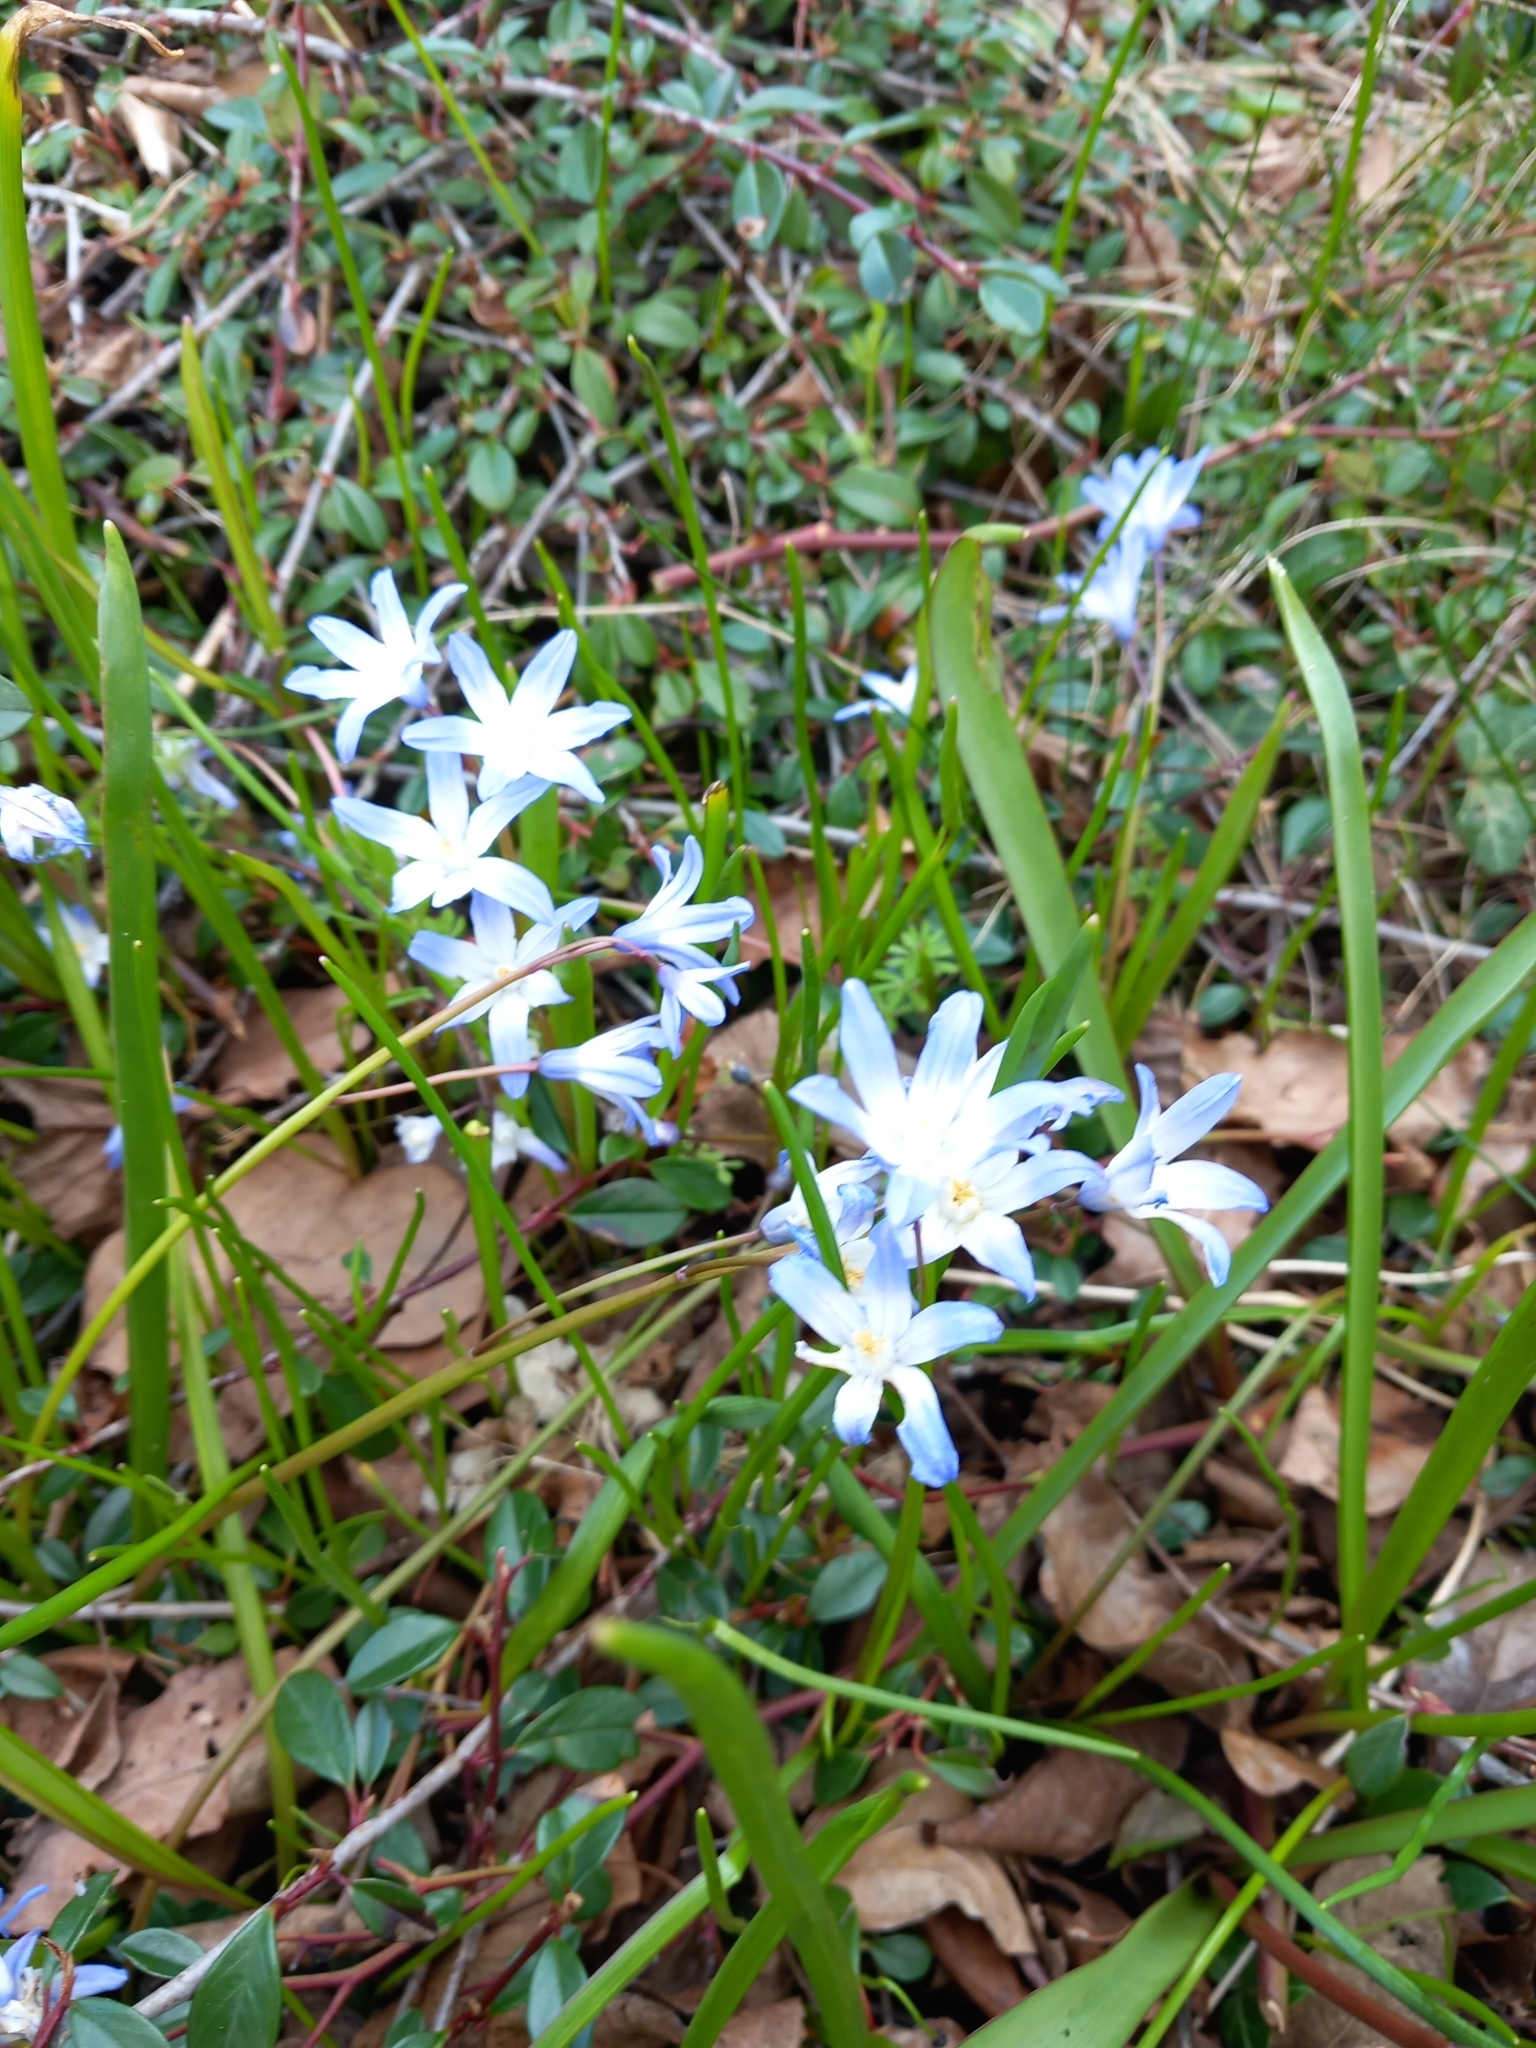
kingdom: Plantae
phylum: Tracheophyta
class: Liliopsida
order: Asparagales
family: Asparagaceae
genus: Scilla
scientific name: Scilla forbesii
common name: Glory-of-the-snow
